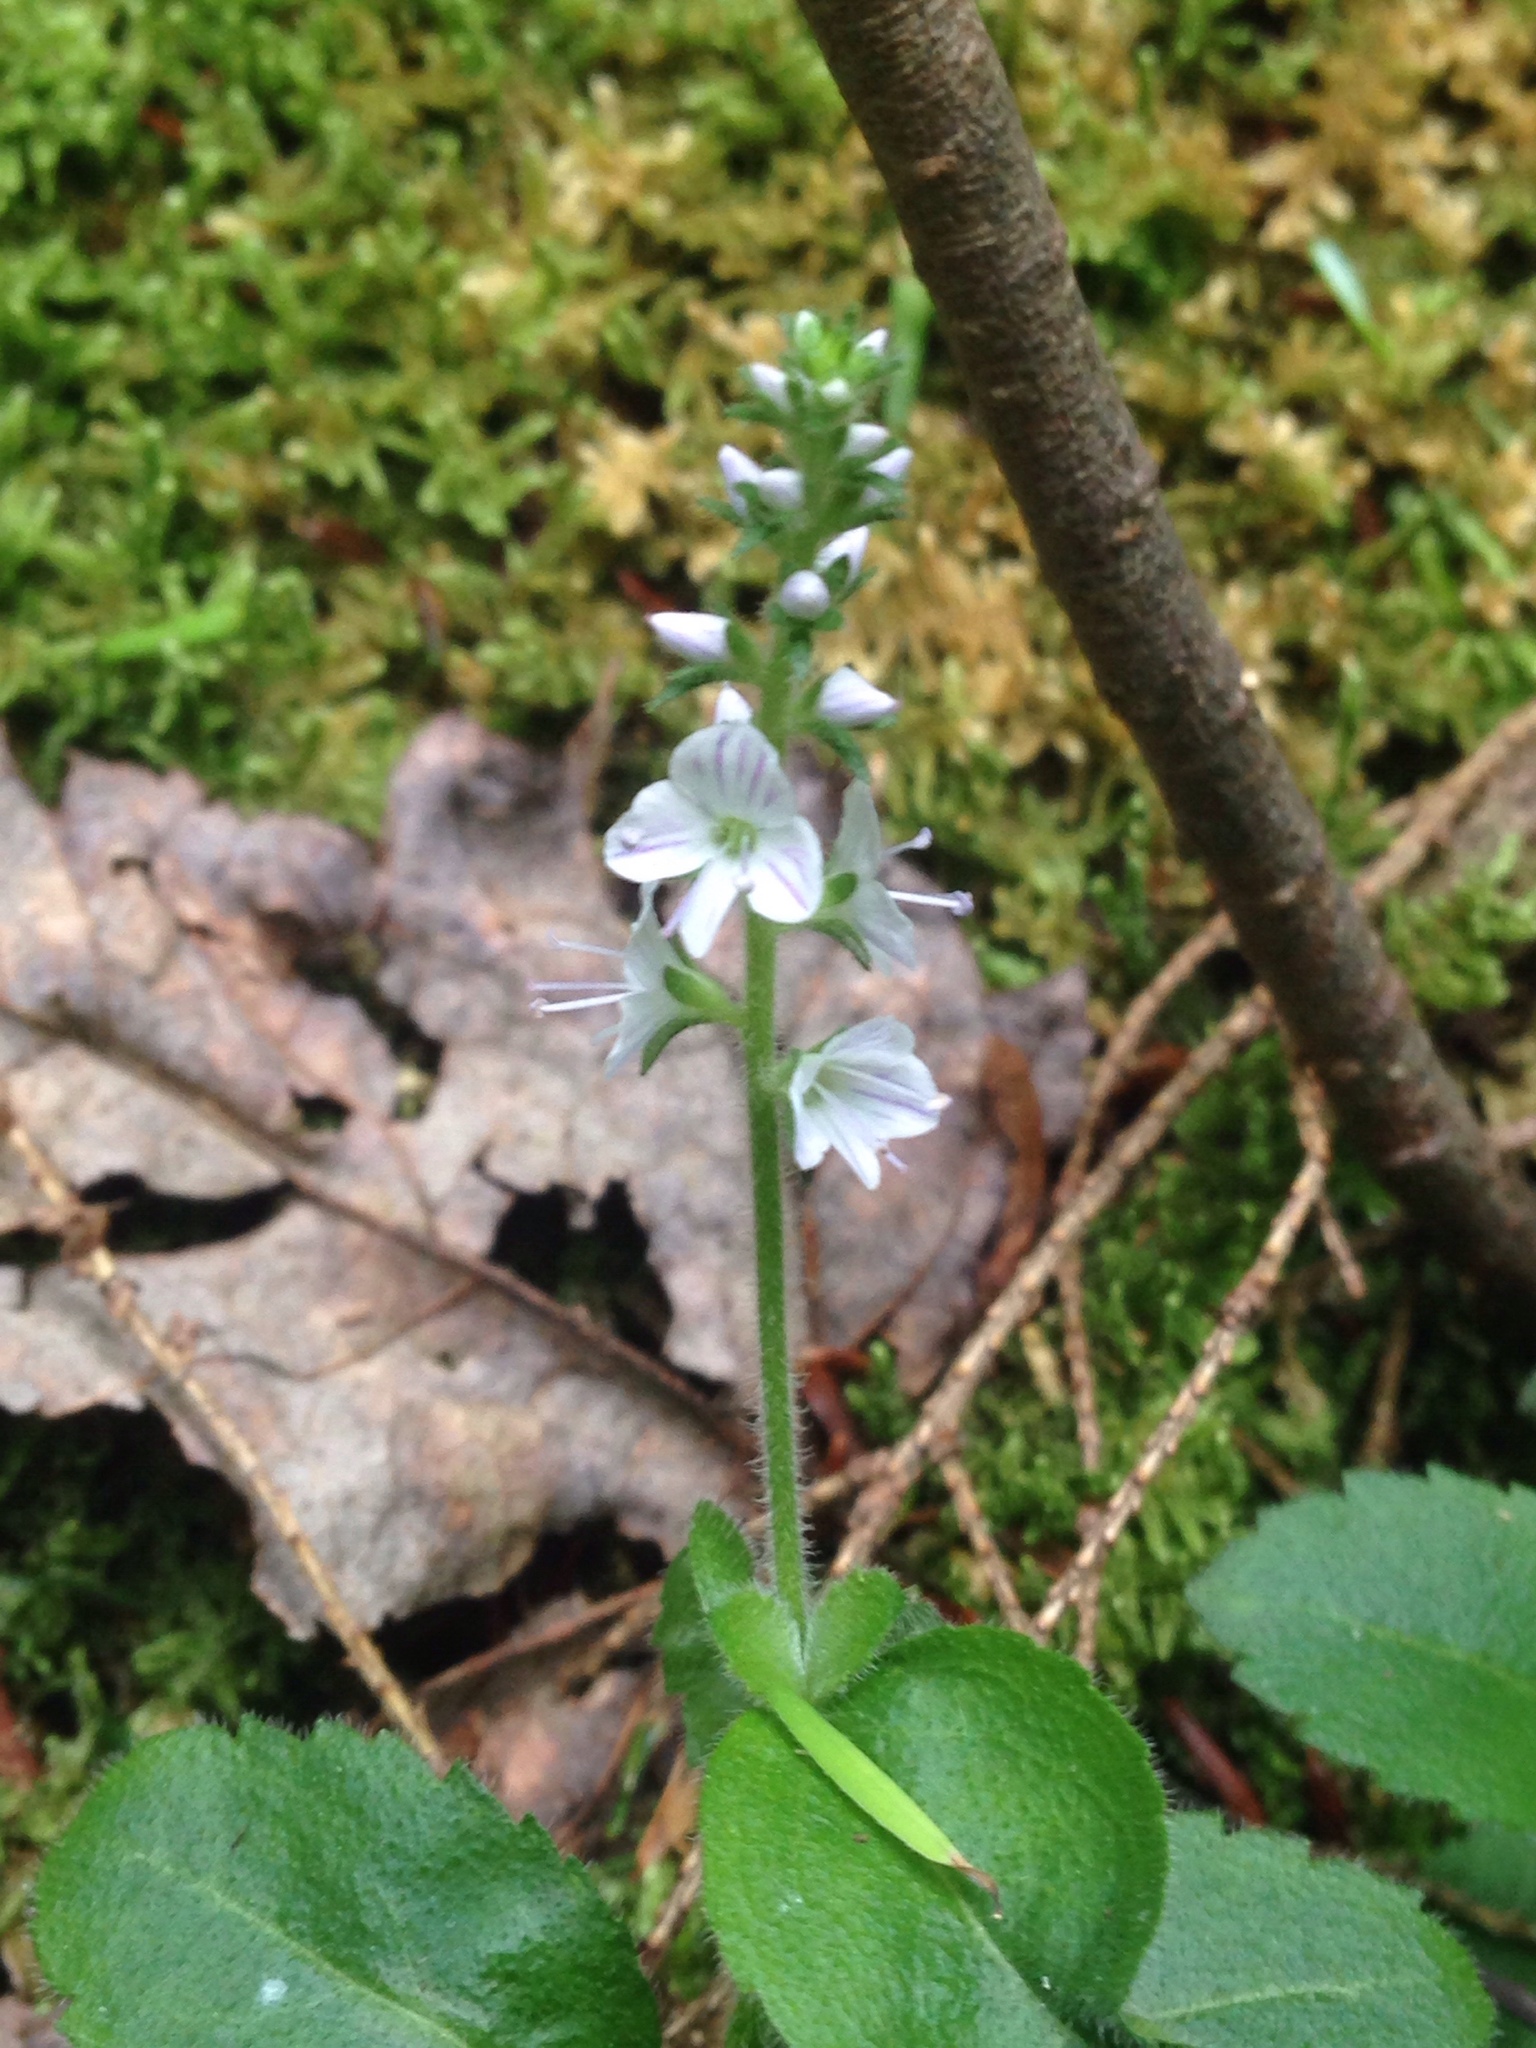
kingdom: Plantae
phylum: Tracheophyta
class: Magnoliopsida
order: Lamiales
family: Plantaginaceae
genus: Veronica
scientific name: Veronica officinalis
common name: Common speedwell
